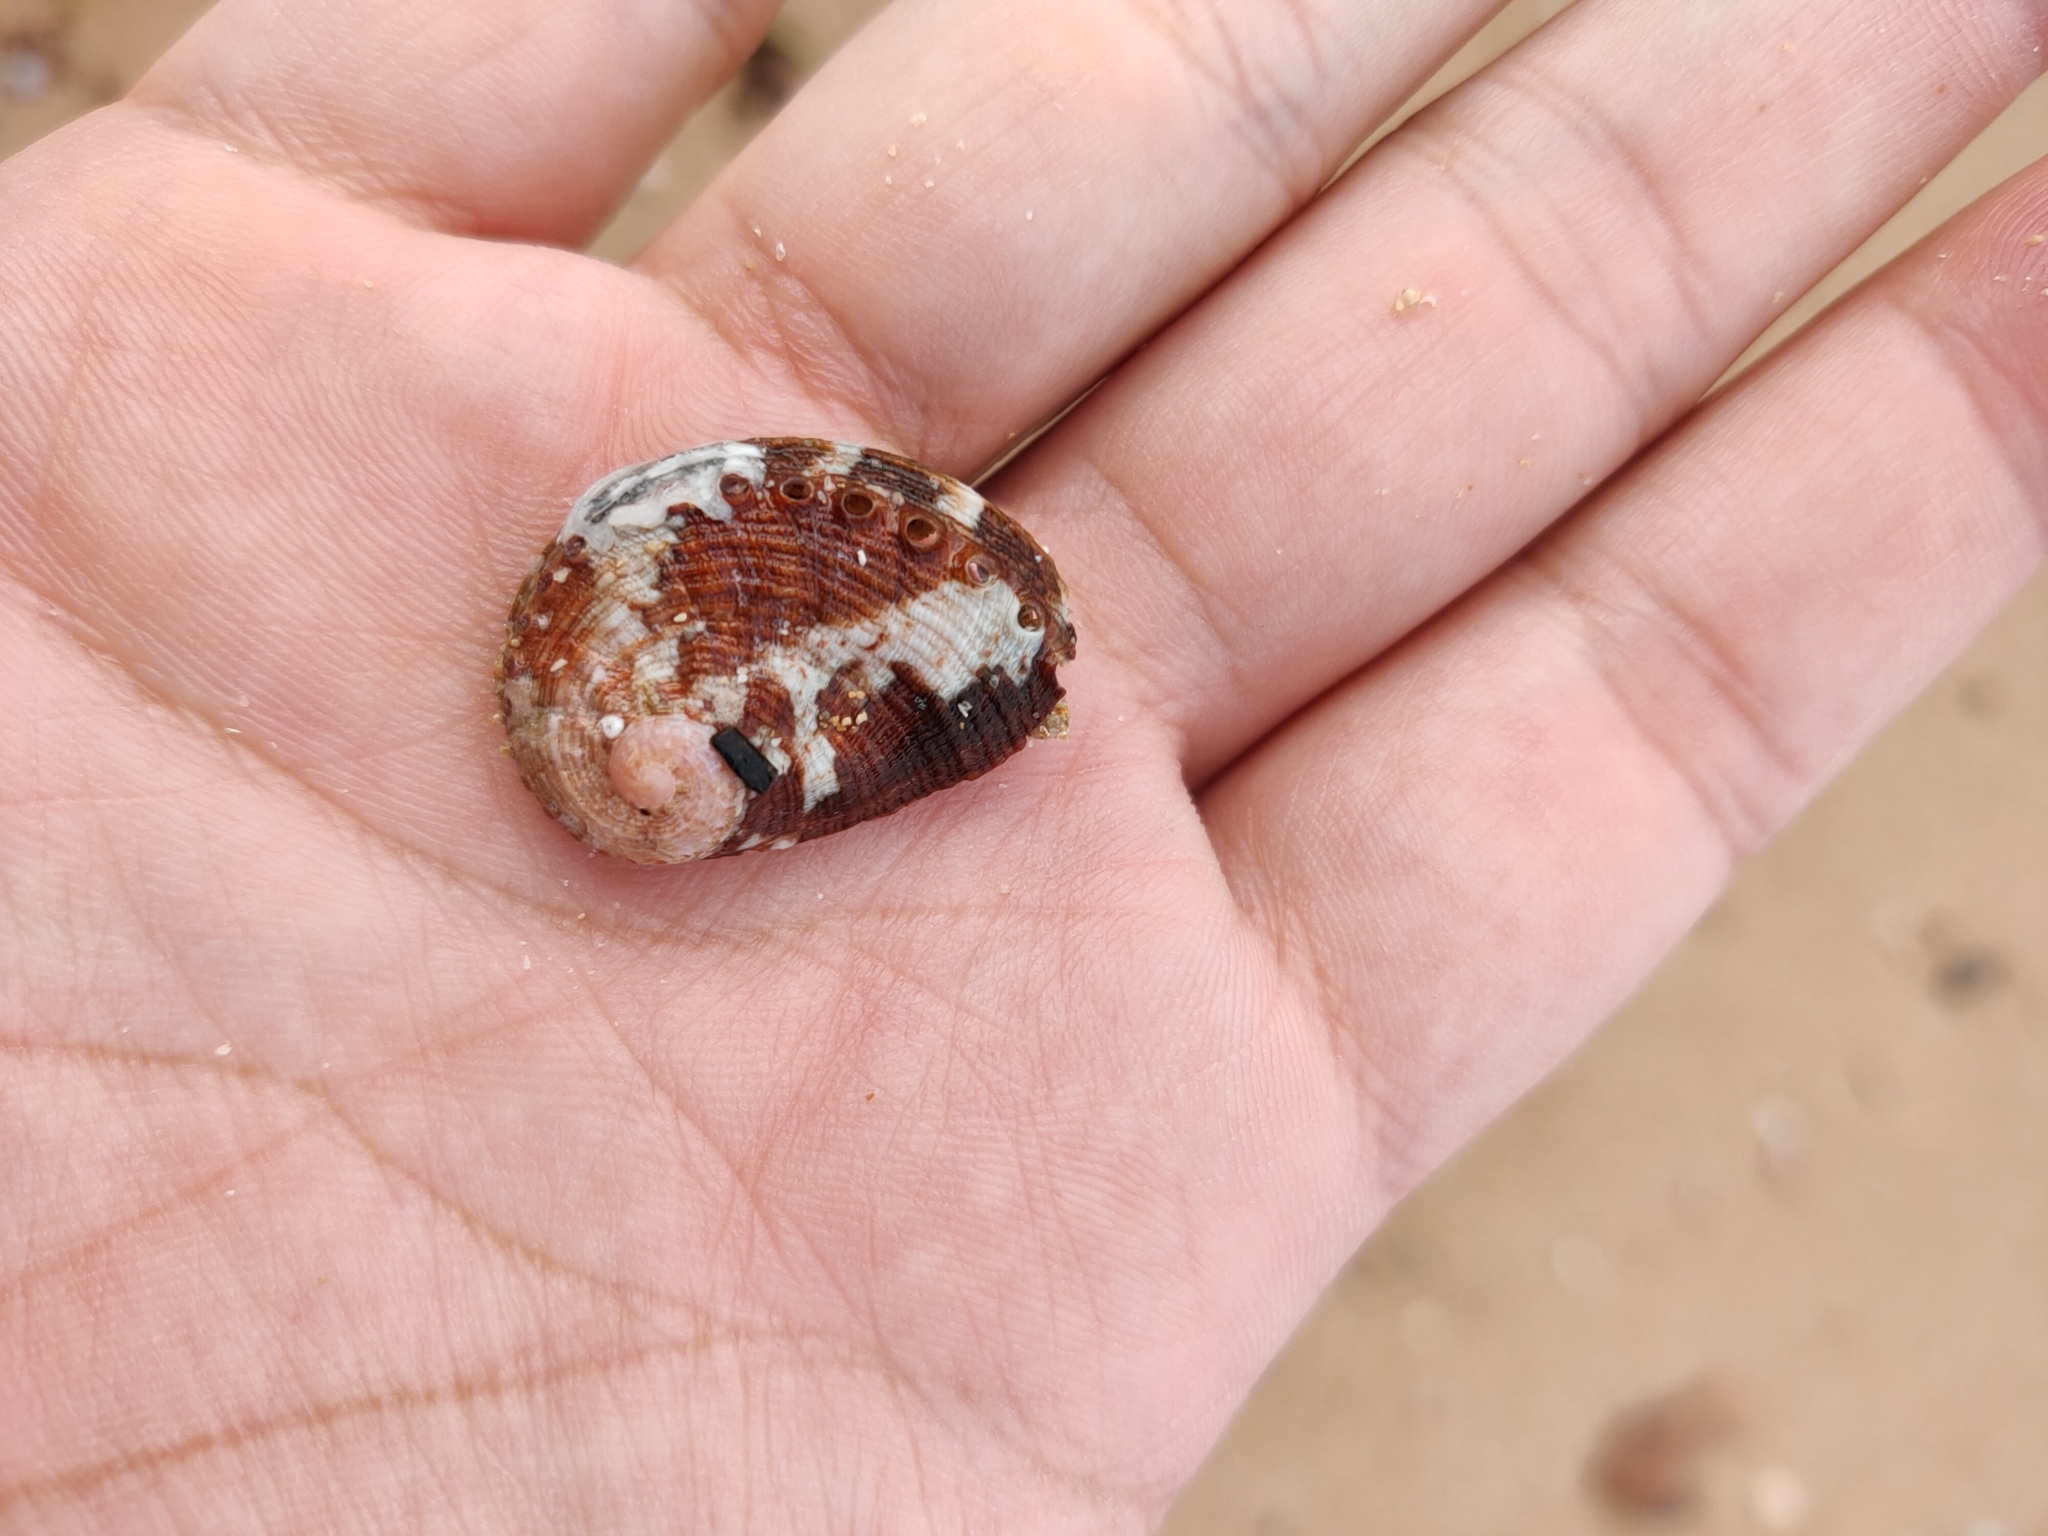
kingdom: Animalia
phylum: Mollusca
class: Gastropoda
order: Lepetellida
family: Haliotidae
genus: Haliotis
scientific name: Haliotis coccoradiata
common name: Reddish-rayed abalone
